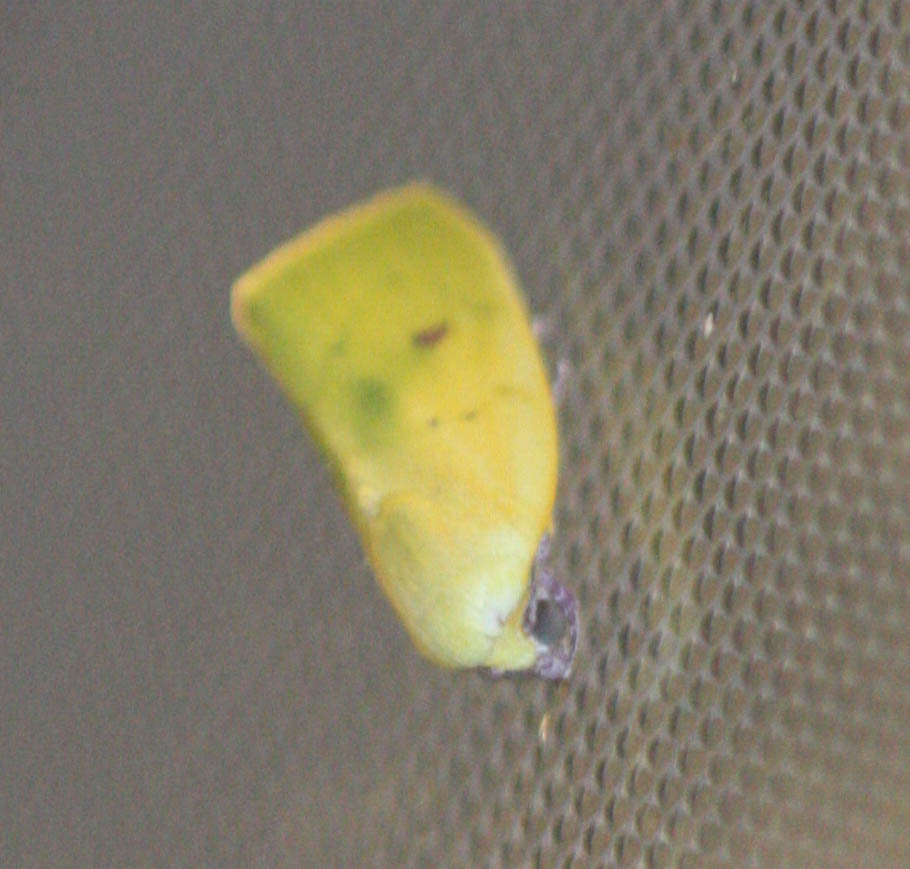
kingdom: Animalia
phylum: Arthropoda
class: Insecta
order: Lepidoptera
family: Nolidae
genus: Earias
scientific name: Earias flavida
